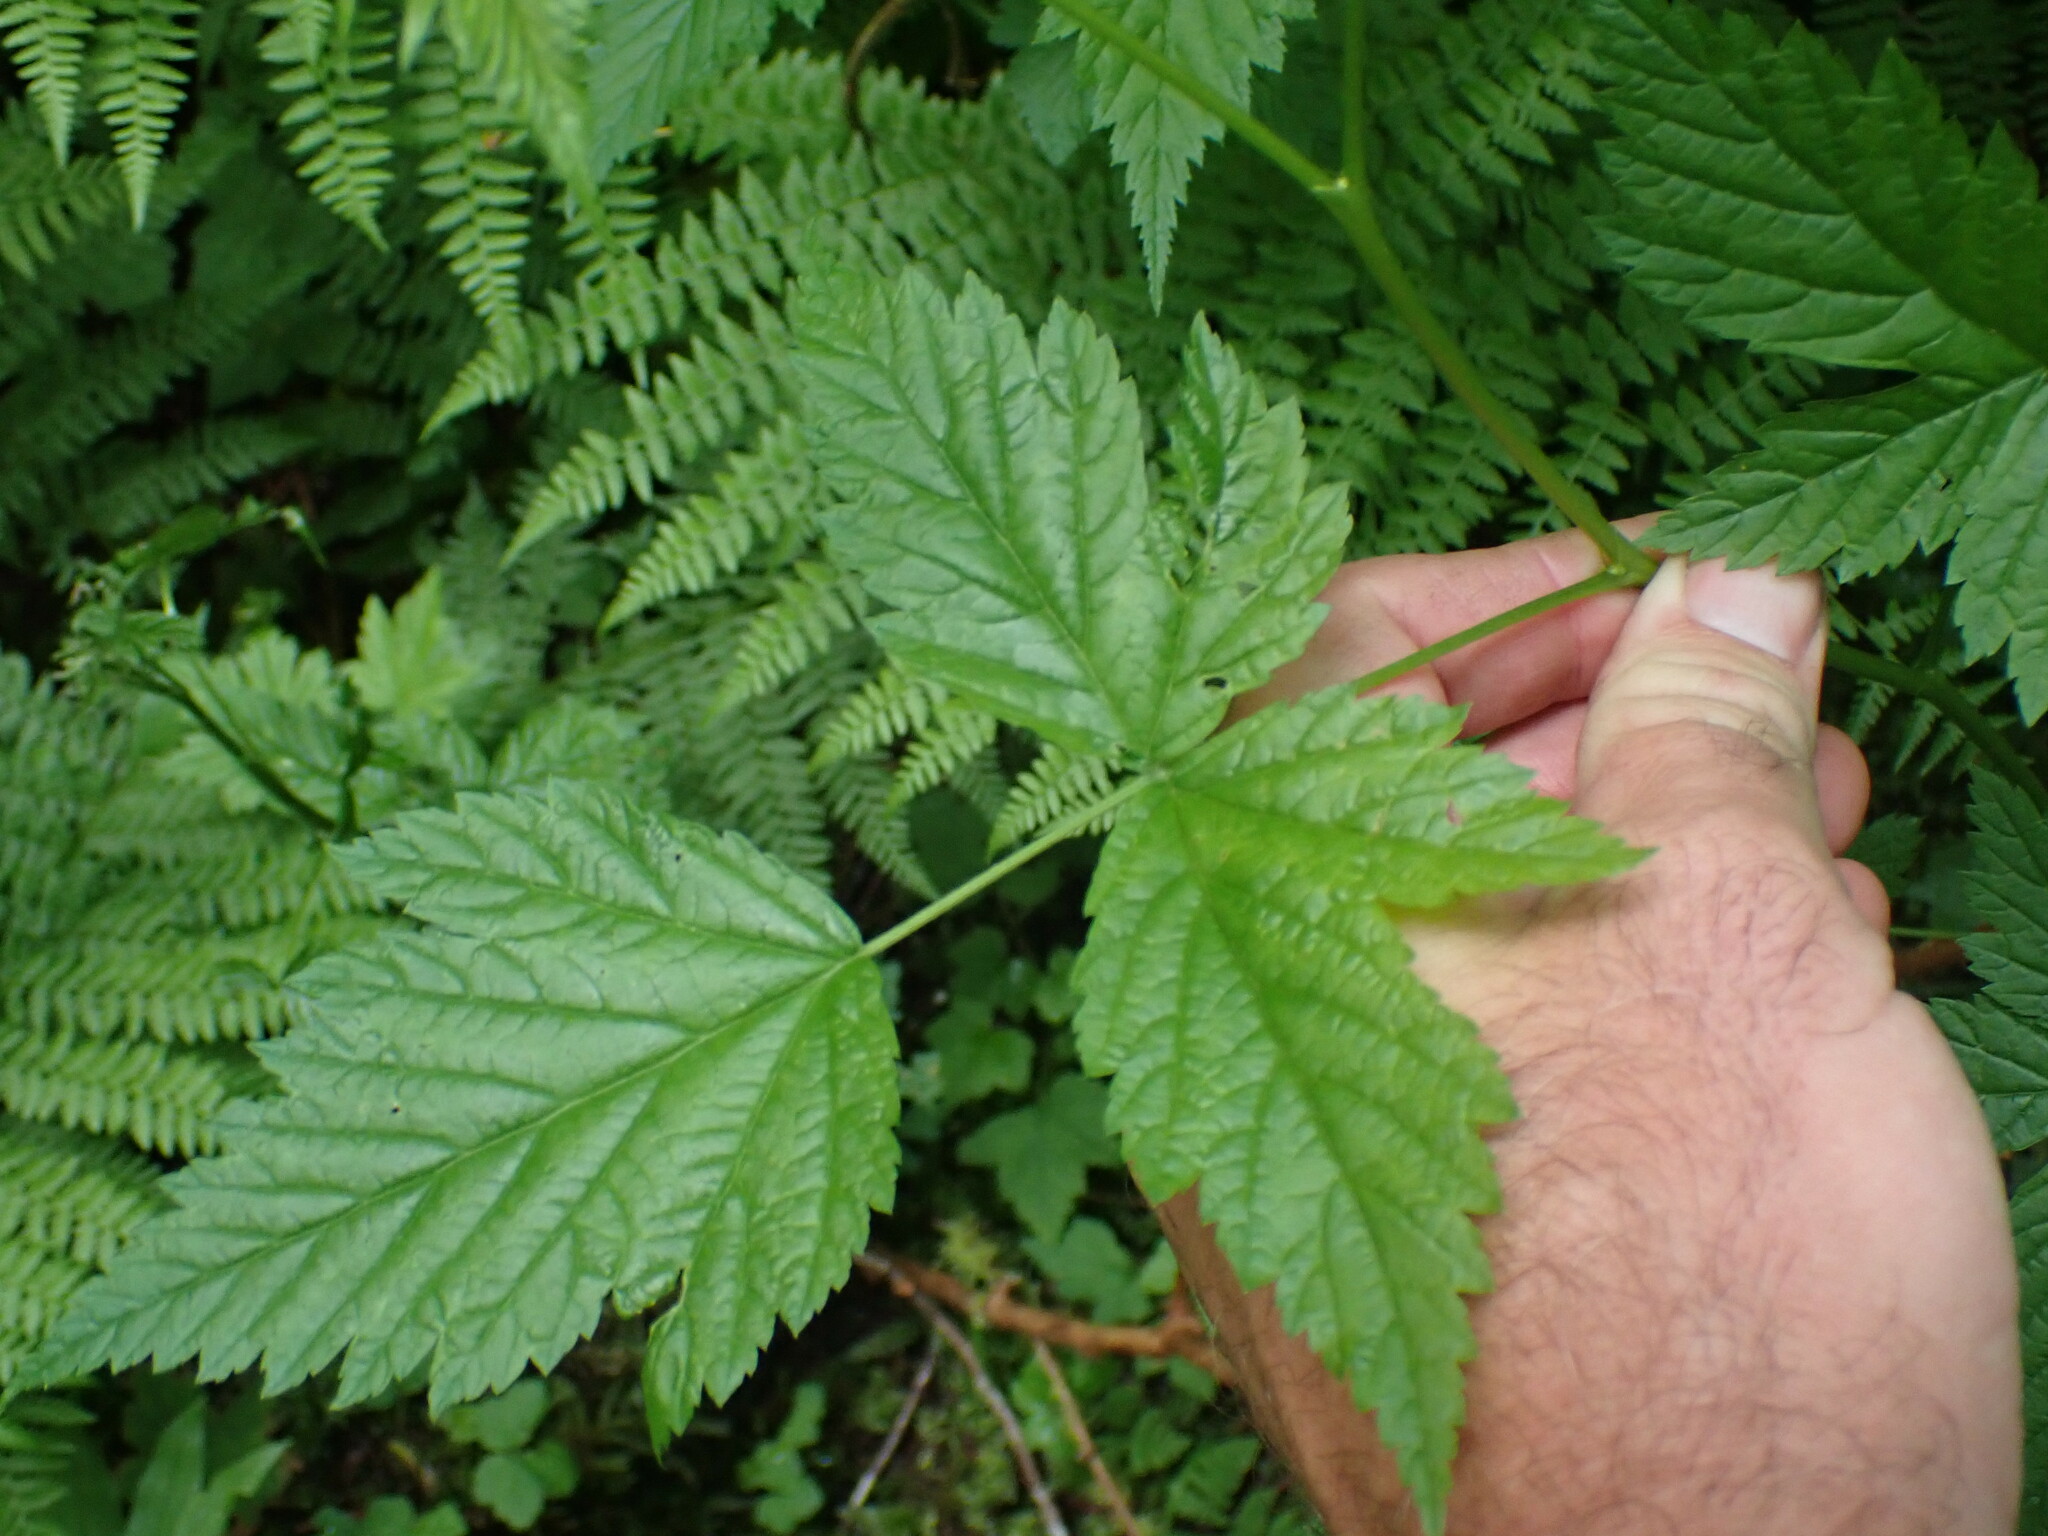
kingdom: Plantae
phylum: Tracheophyta
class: Magnoliopsida
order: Rosales
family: Rosaceae
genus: Rubus
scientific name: Rubus spectabilis
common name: Salmonberry
